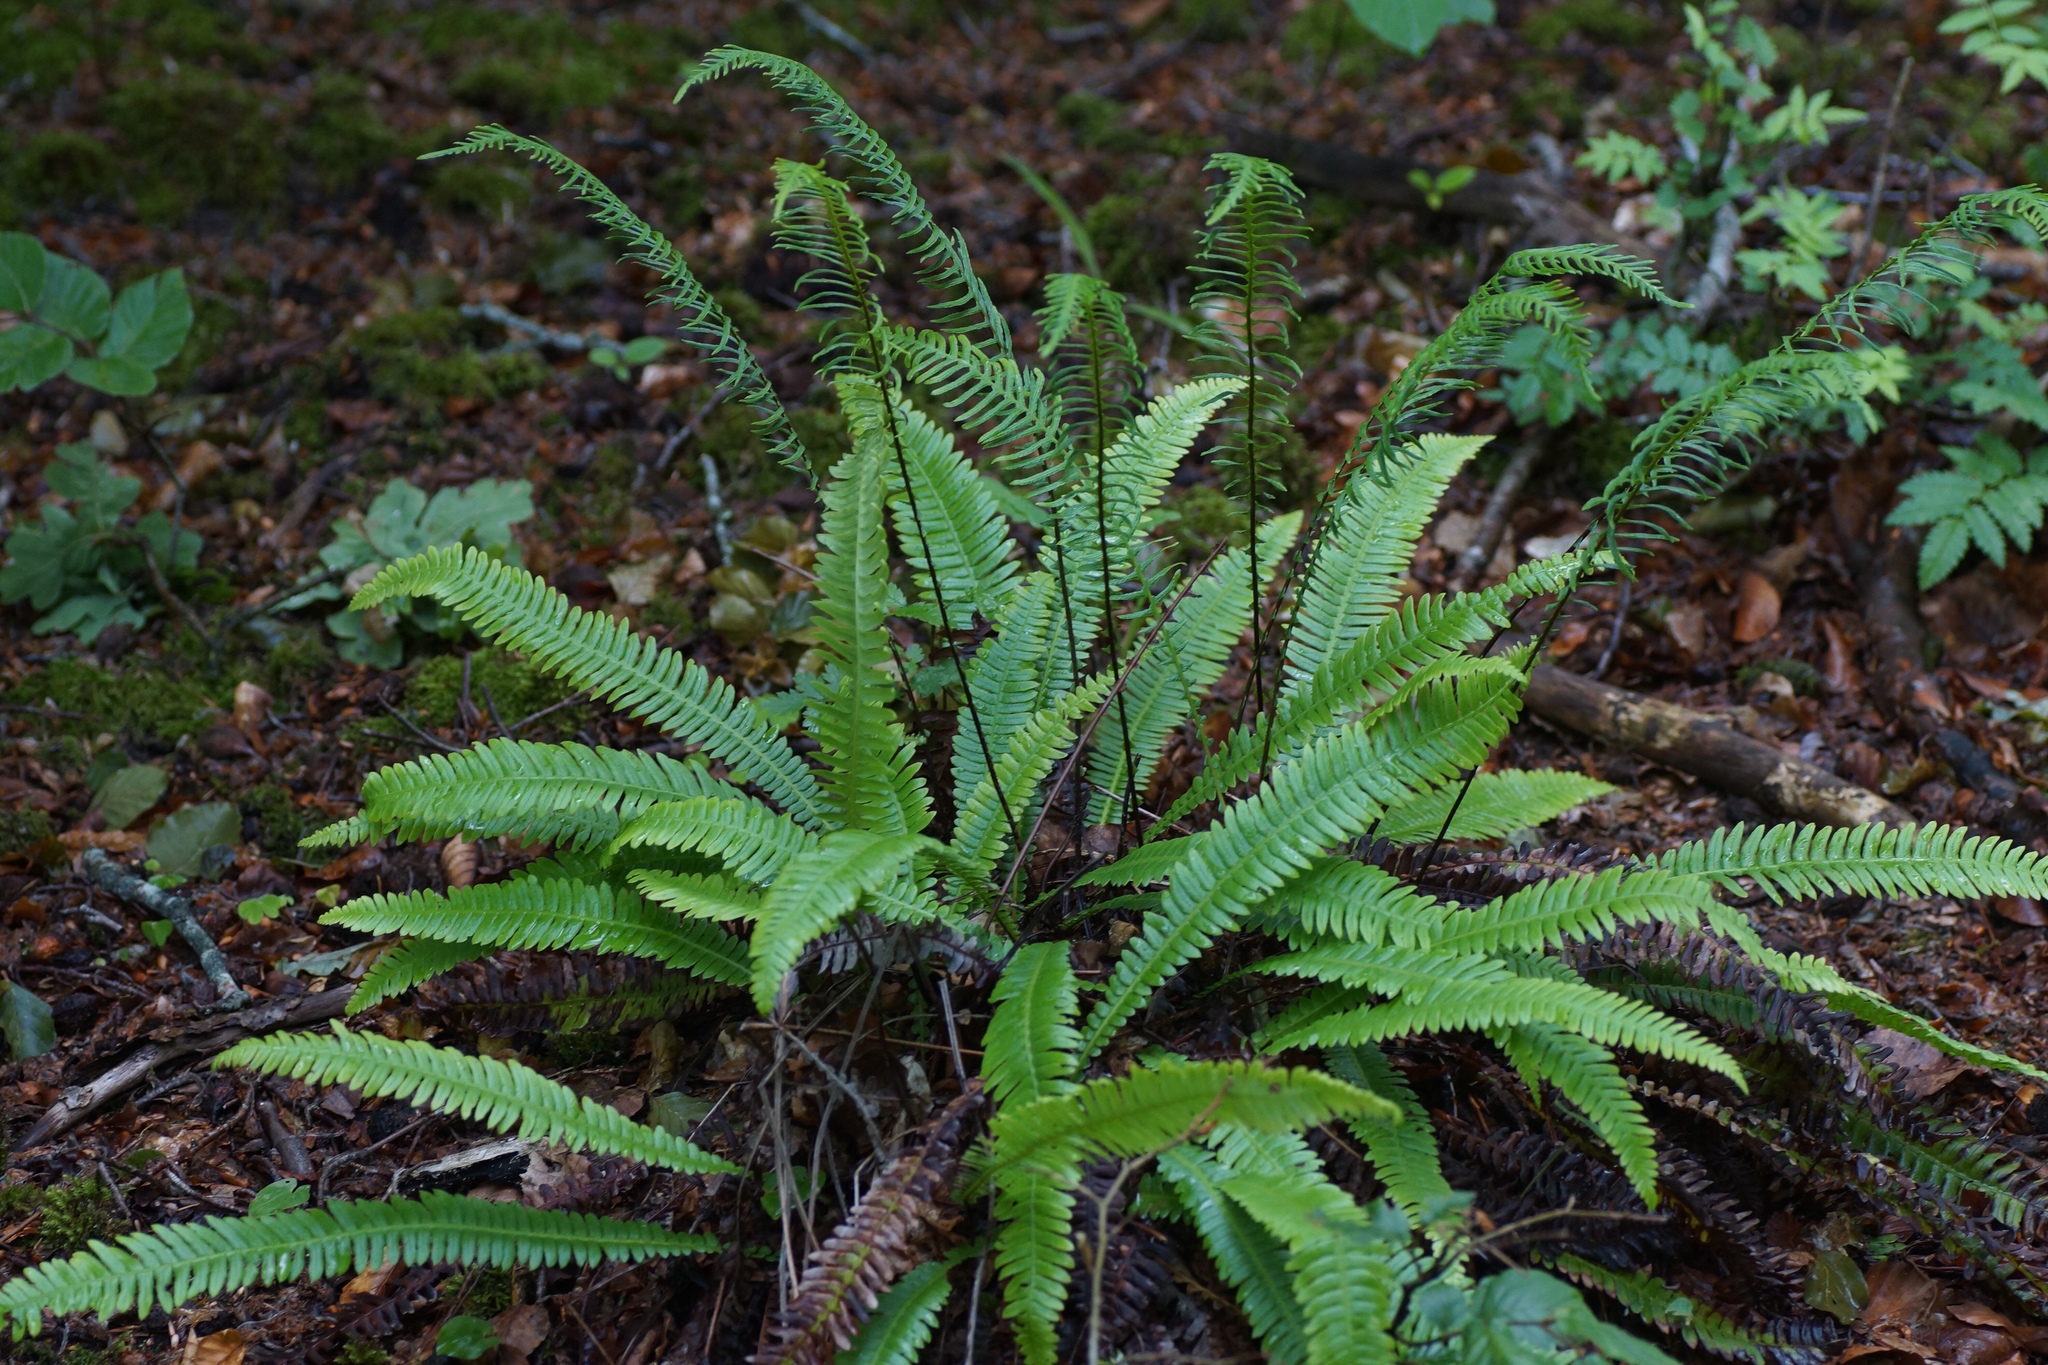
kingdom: Plantae
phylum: Tracheophyta
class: Polypodiopsida
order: Polypodiales
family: Blechnaceae
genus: Struthiopteris
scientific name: Struthiopteris spicant
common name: Deer fern
